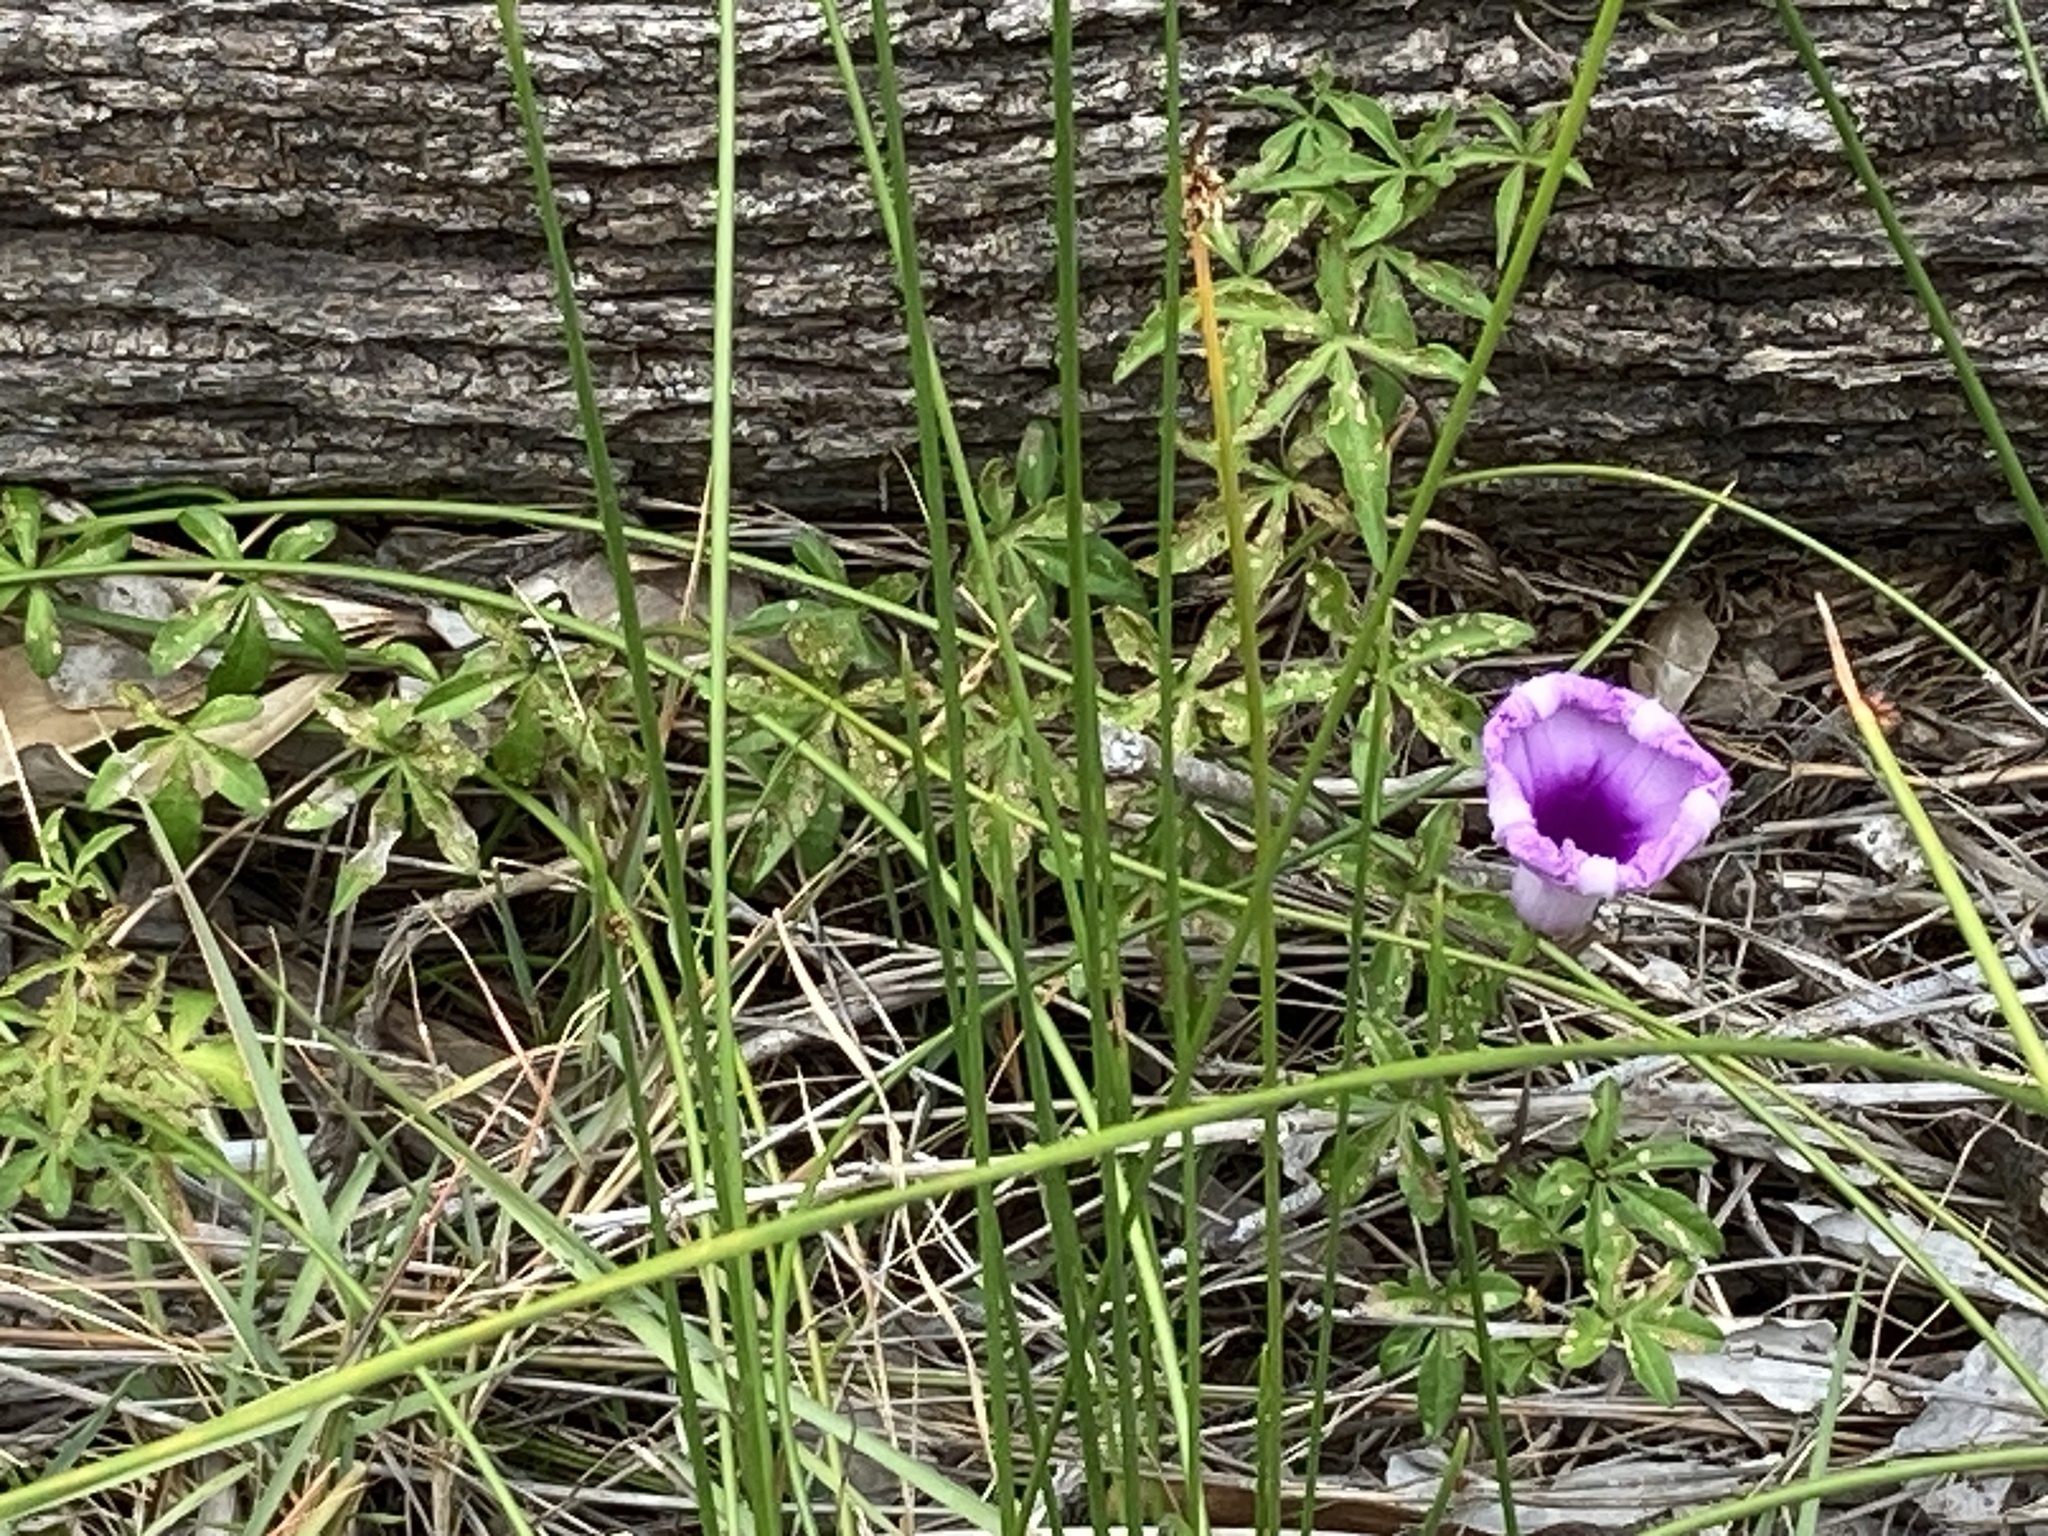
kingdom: Plantae
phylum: Tracheophyta
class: Magnoliopsida
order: Solanales
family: Convolvulaceae
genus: Ipomoea
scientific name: Ipomoea cairica
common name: Mile a minute vine
